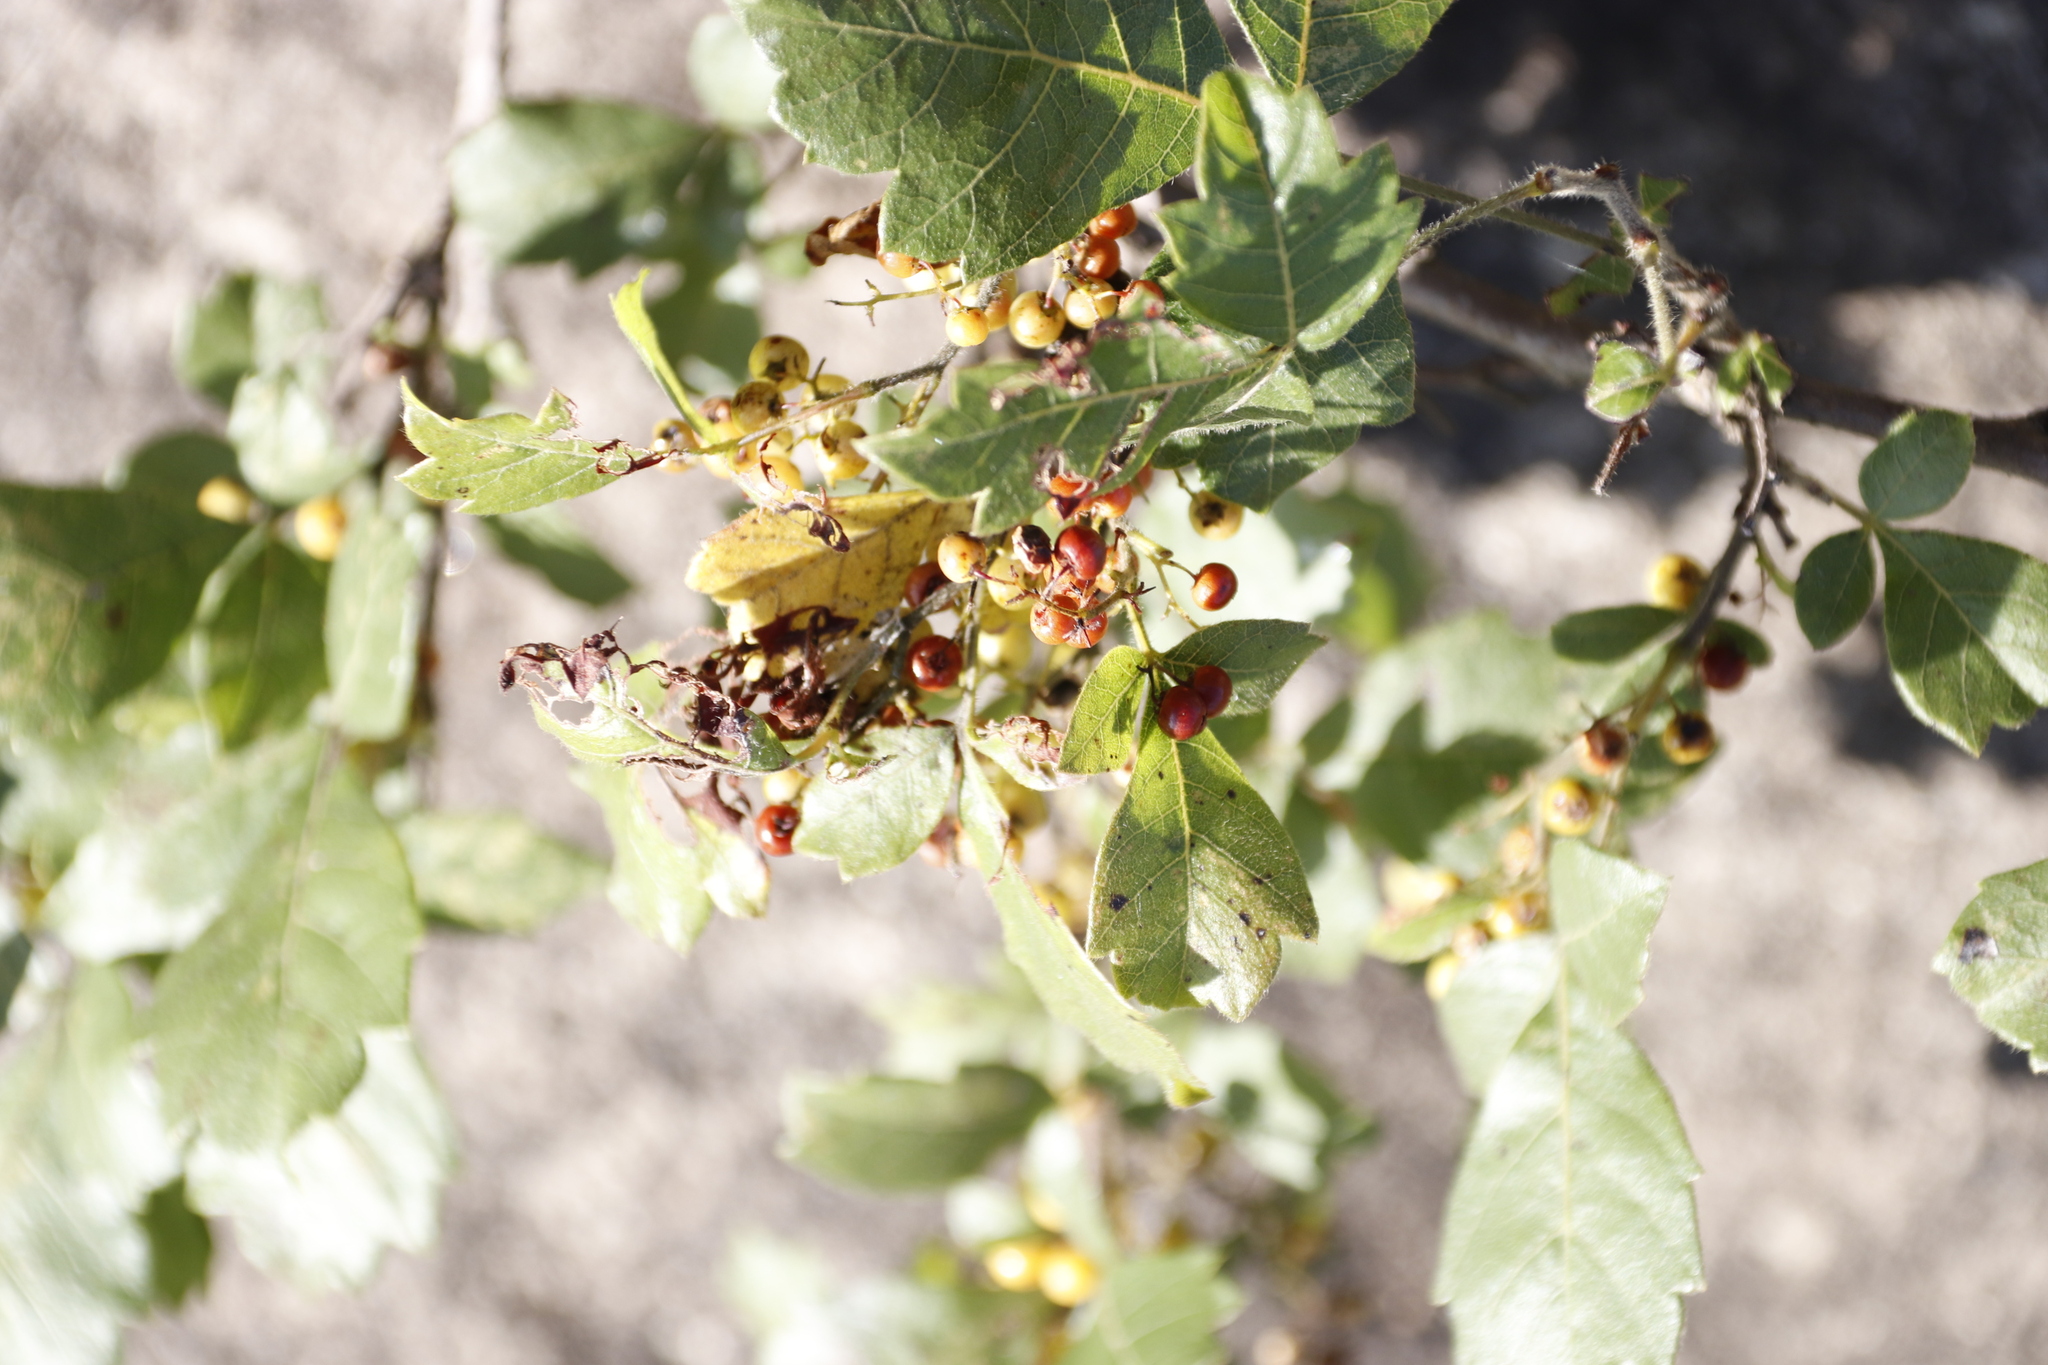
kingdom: Plantae
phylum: Tracheophyta
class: Magnoliopsida
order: Sapindales
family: Anacardiaceae
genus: Searsia
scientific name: Searsia dentata
